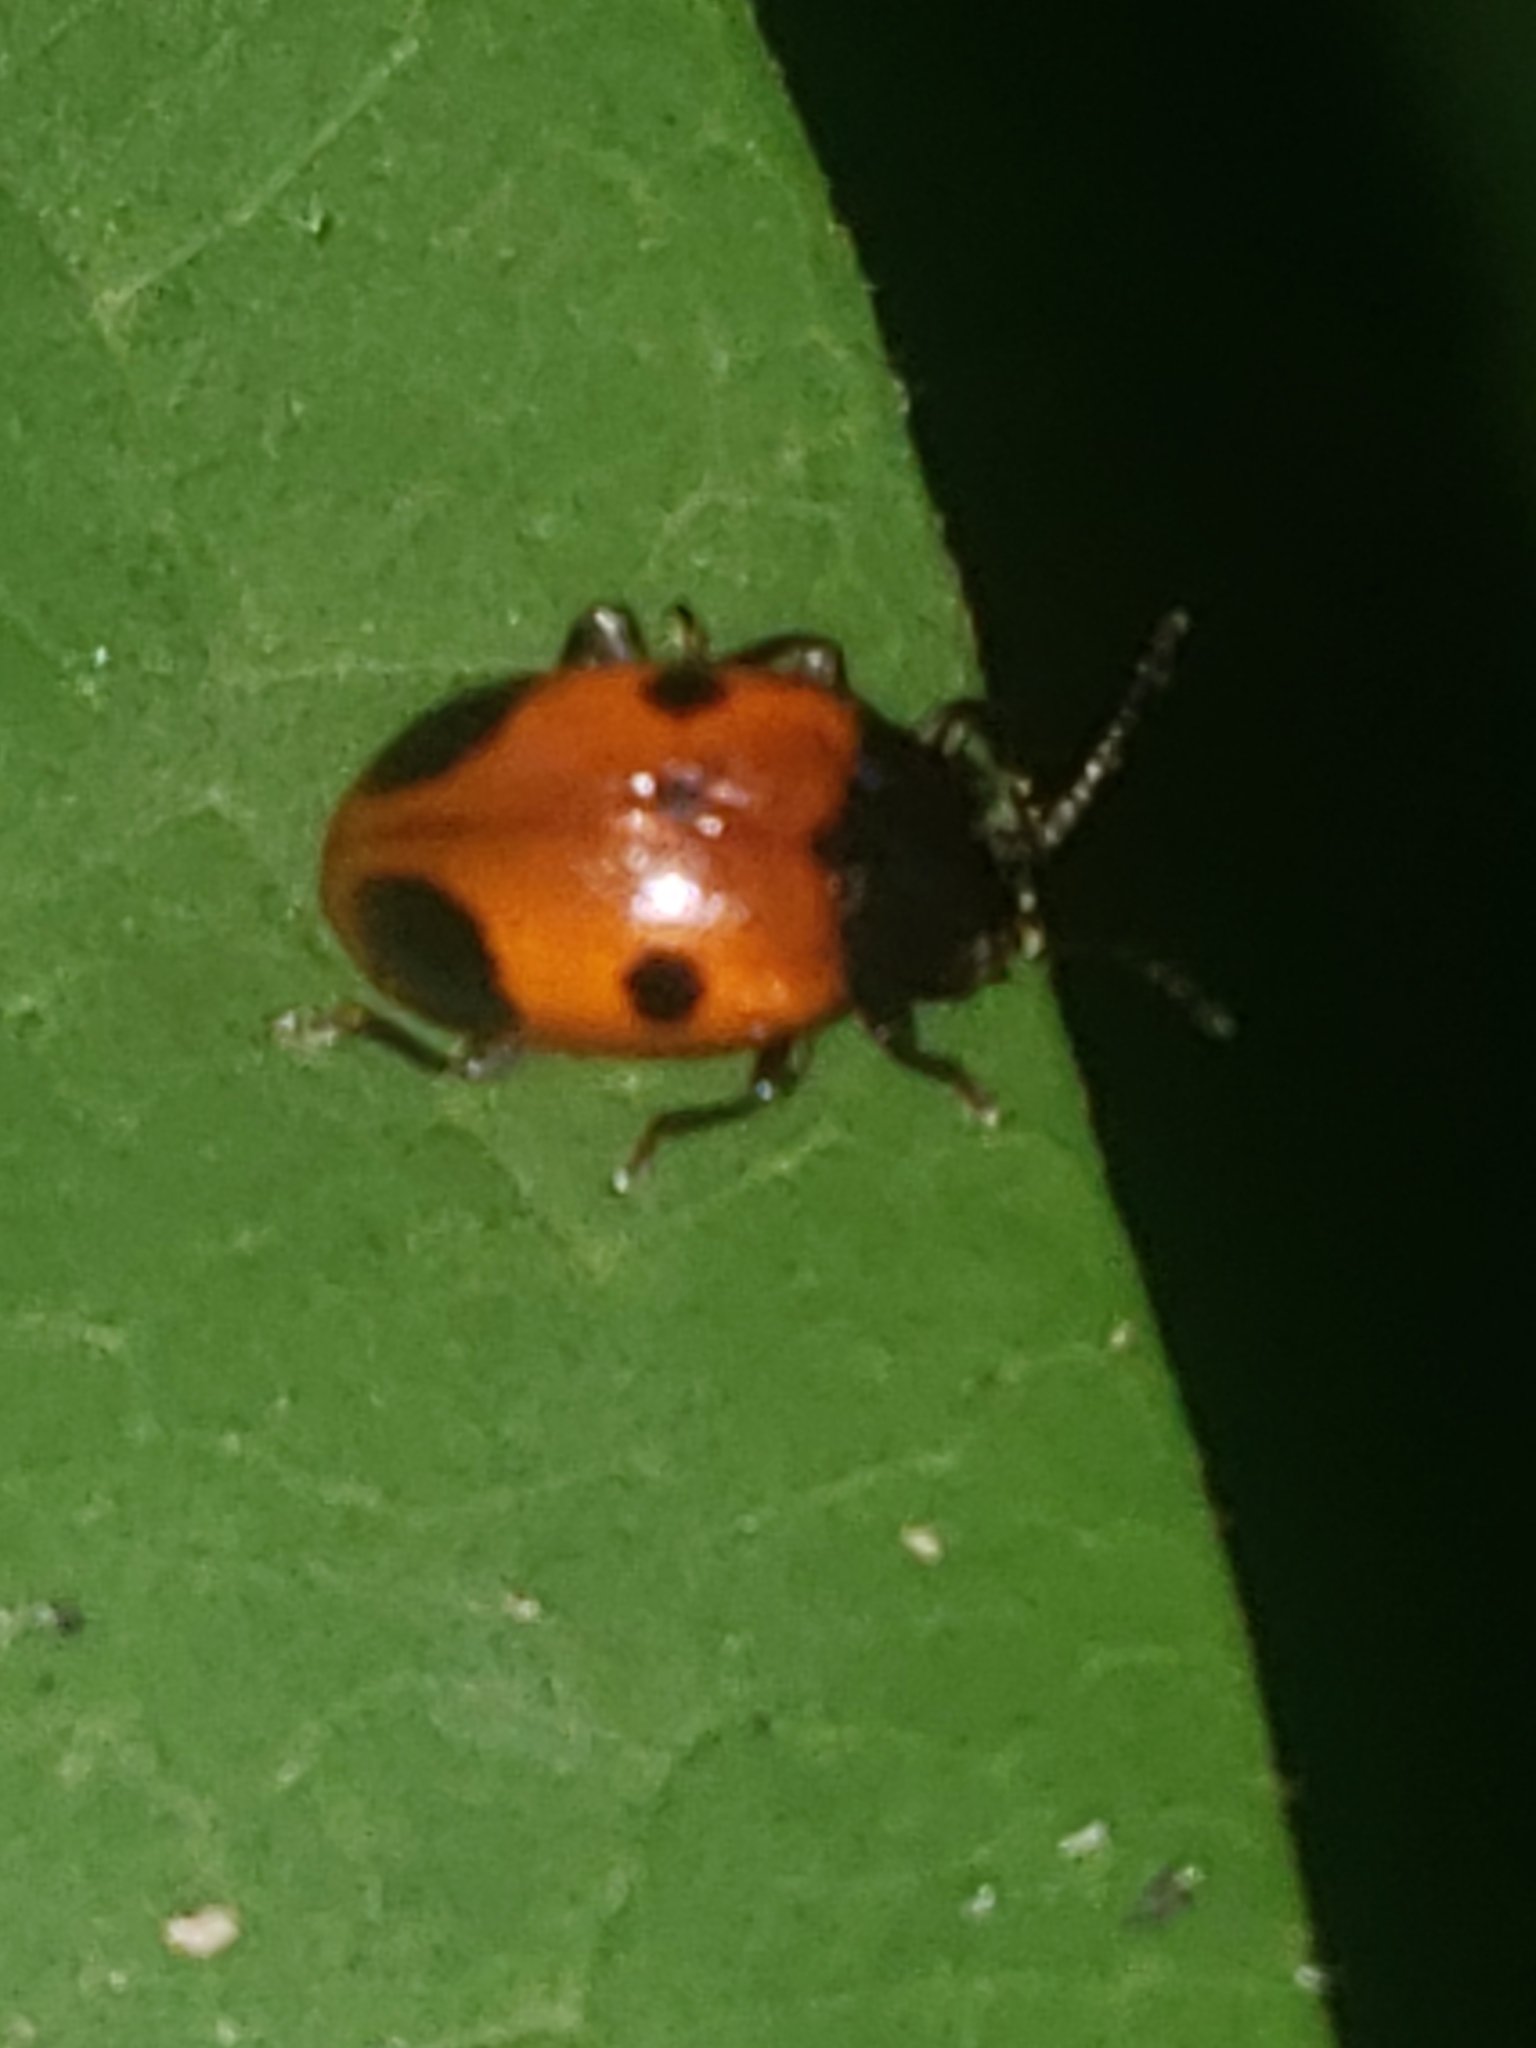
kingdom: Animalia
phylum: Arthropoda
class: Insecta
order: Coleoptera
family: Endomychidae
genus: Endomychus
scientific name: Endomychus biguttatus
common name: Handsome fungus beetle
